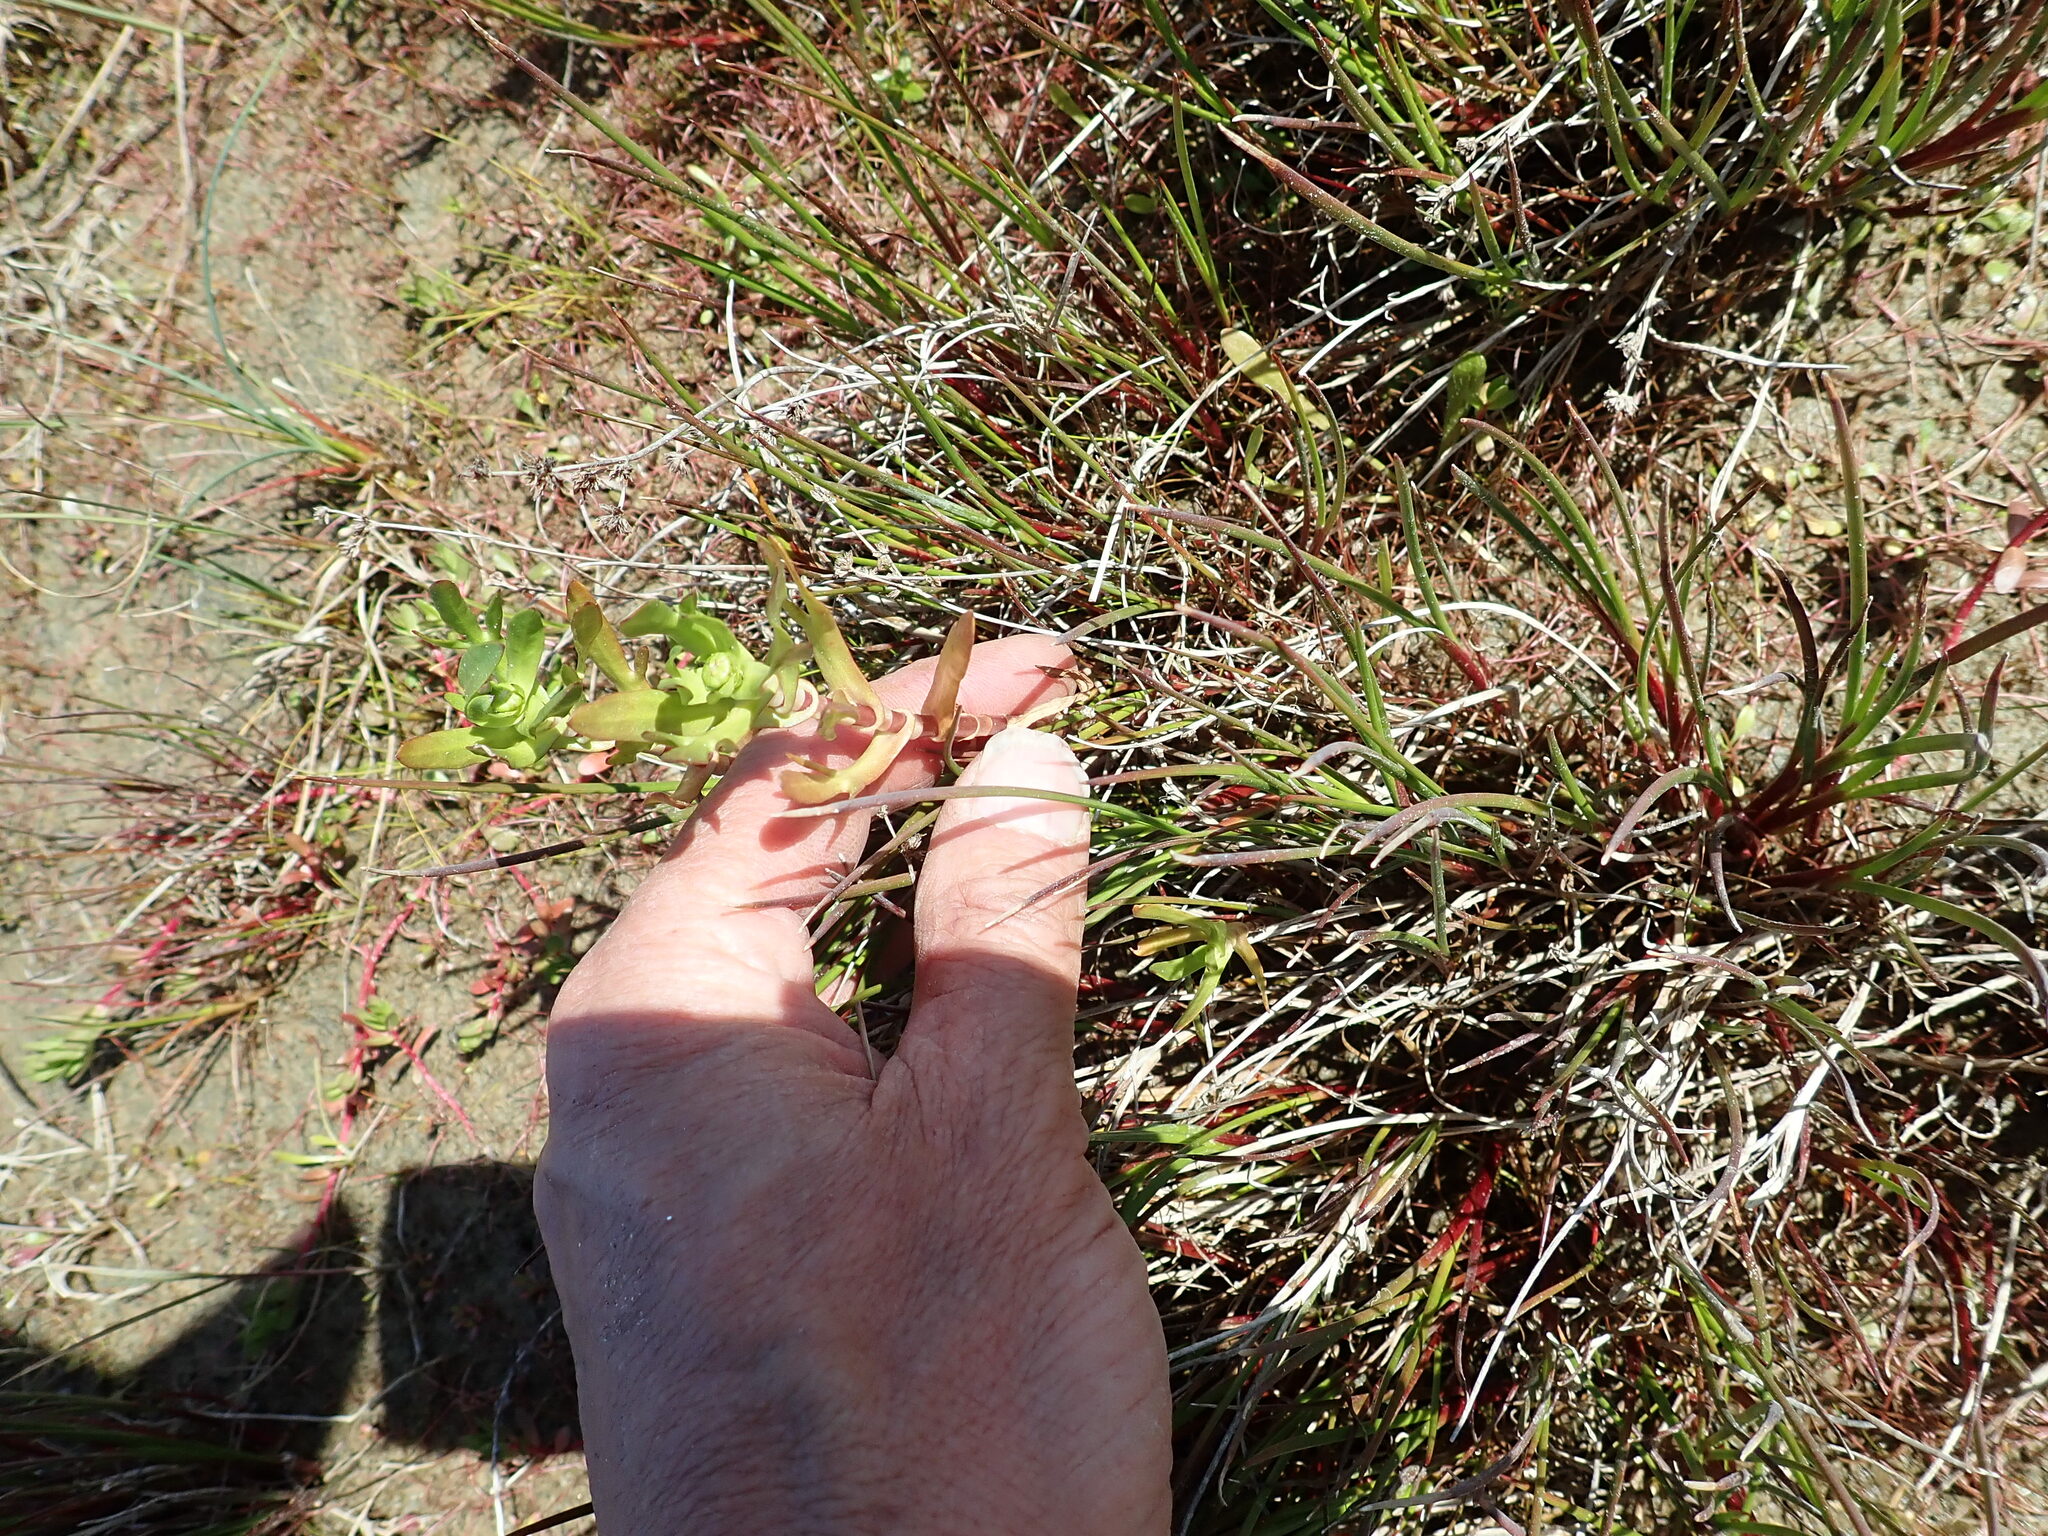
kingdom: Plantae
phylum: Tracheophyta
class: Magnoliopsida
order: Asterales
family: Asteraceae
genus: Cotula
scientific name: Cotula coronopifolia
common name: Buttonweed
